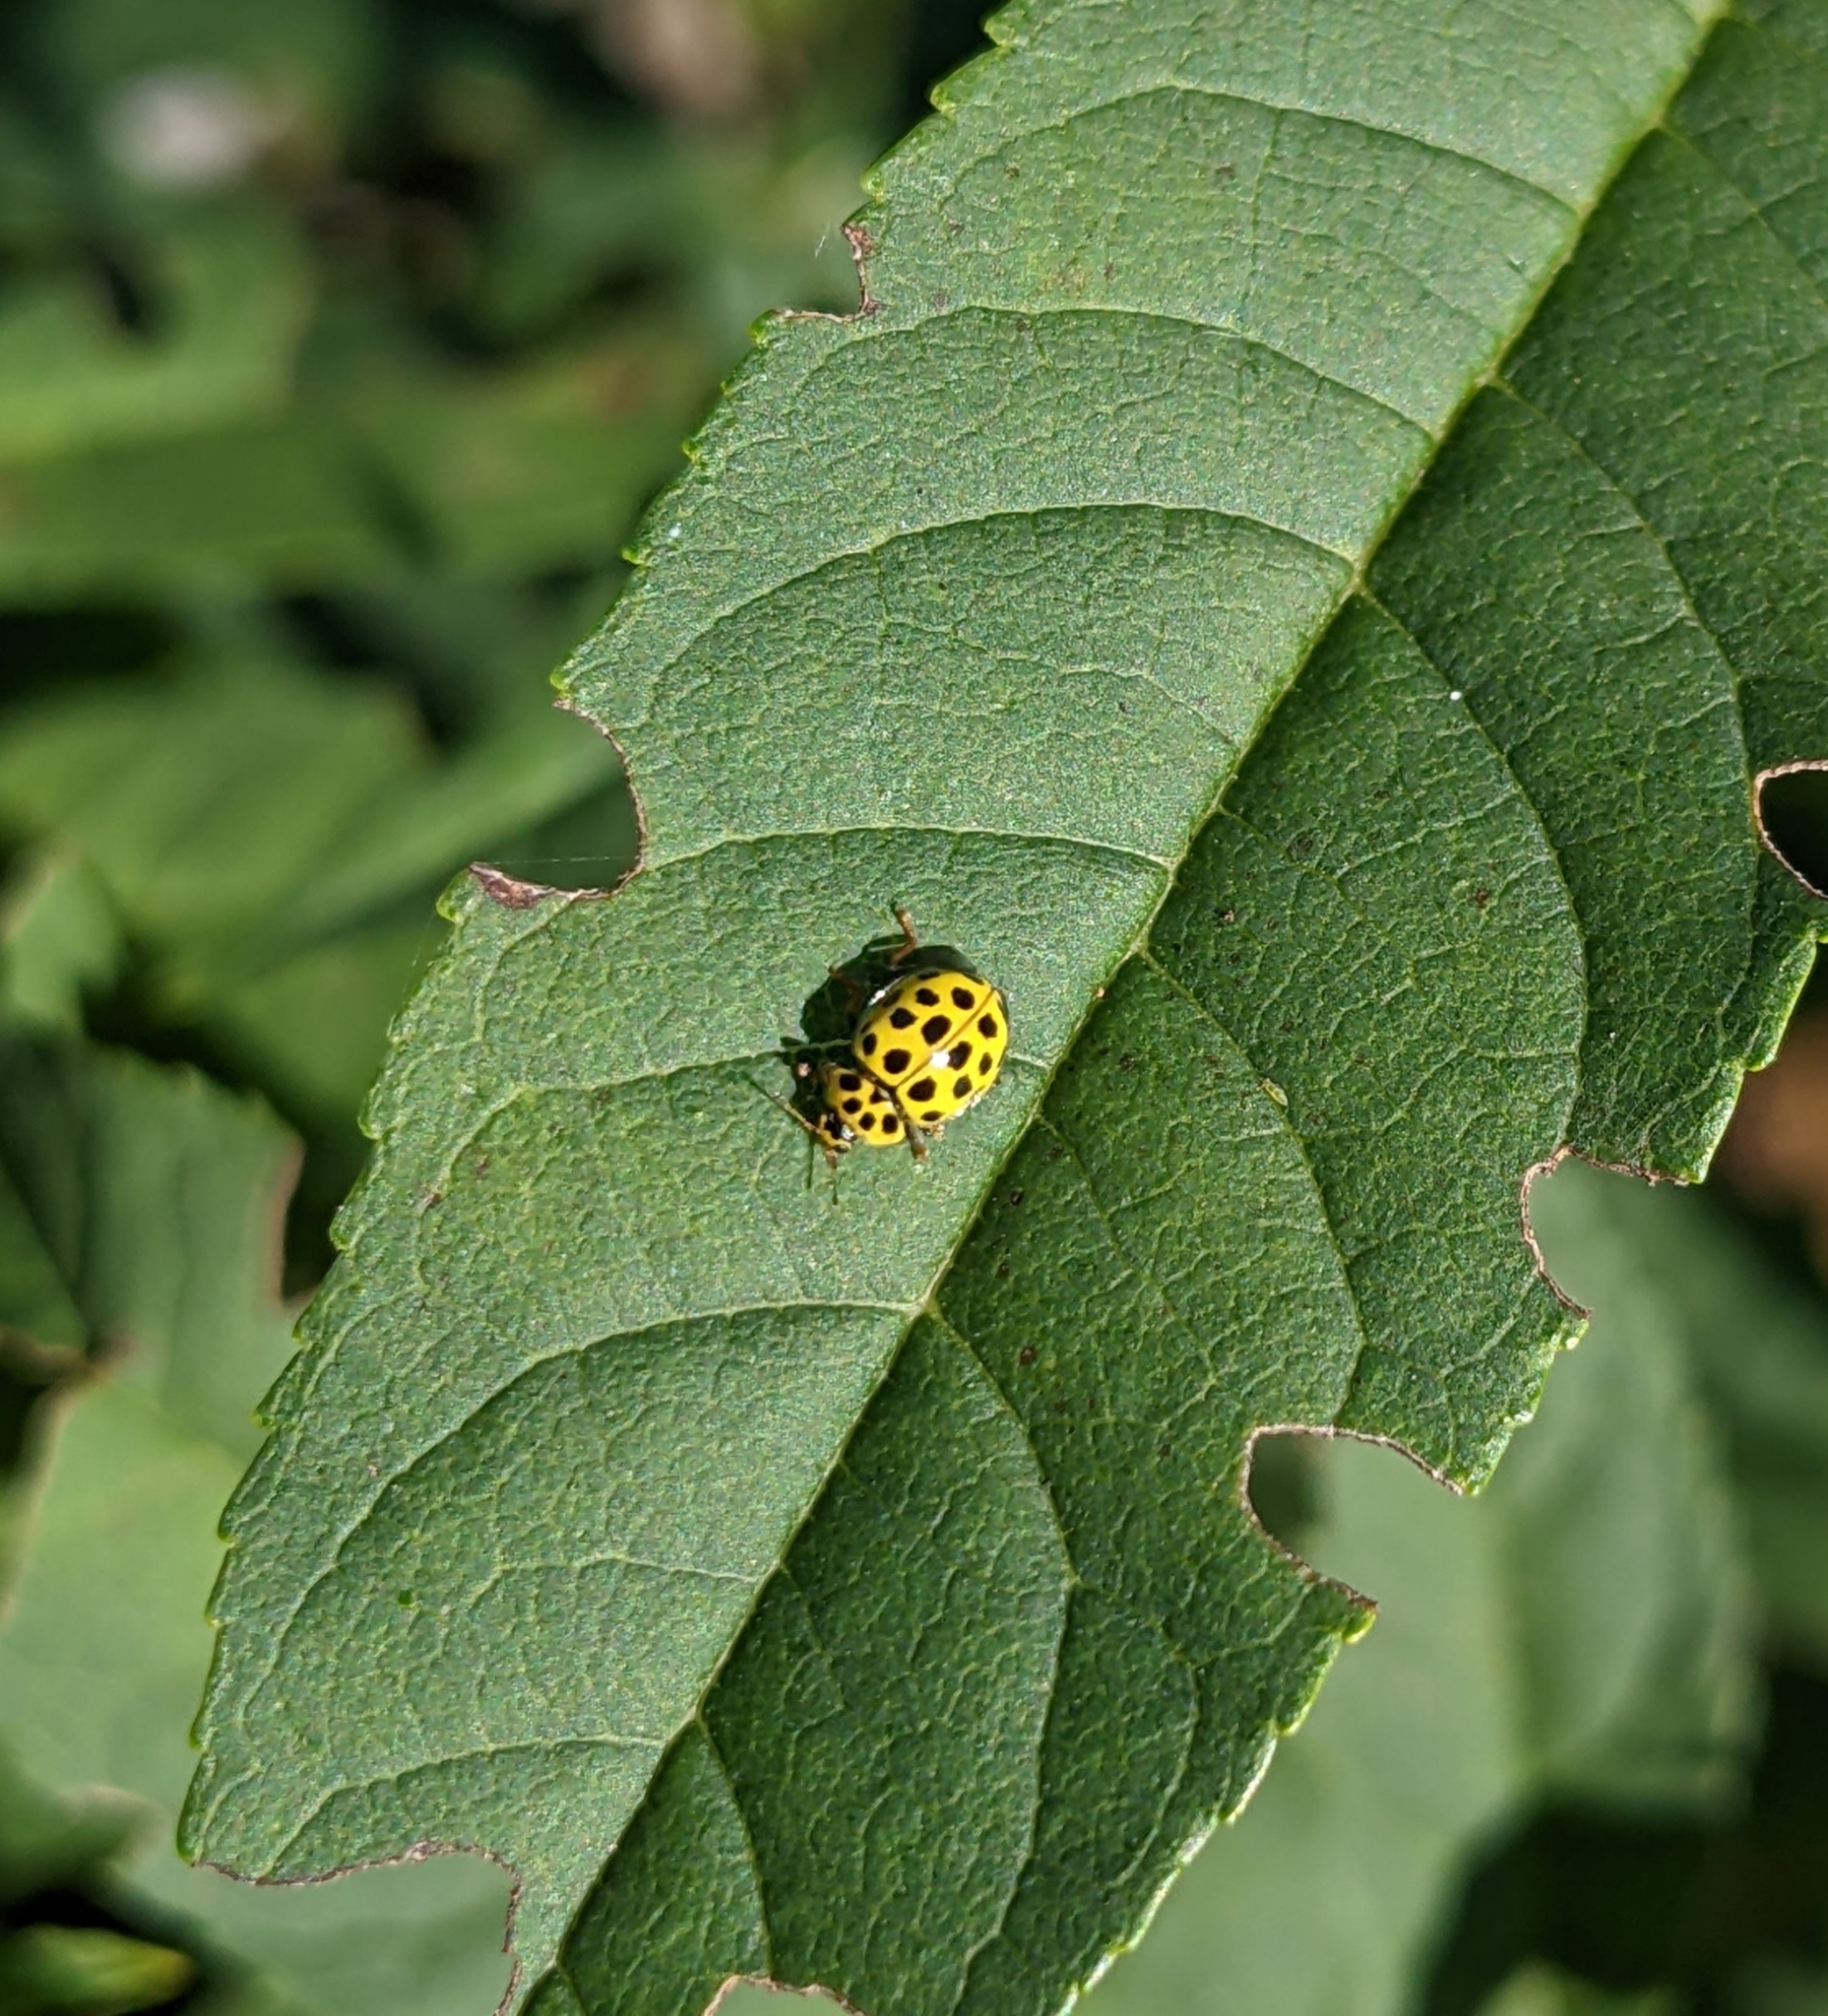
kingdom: Animalia
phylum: Arthropoda
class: Insecta
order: Coleoptera
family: Coccinellidae
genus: Psyllobora
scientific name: Psyllobora vigintiduopunctata
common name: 22-spot ladybird
